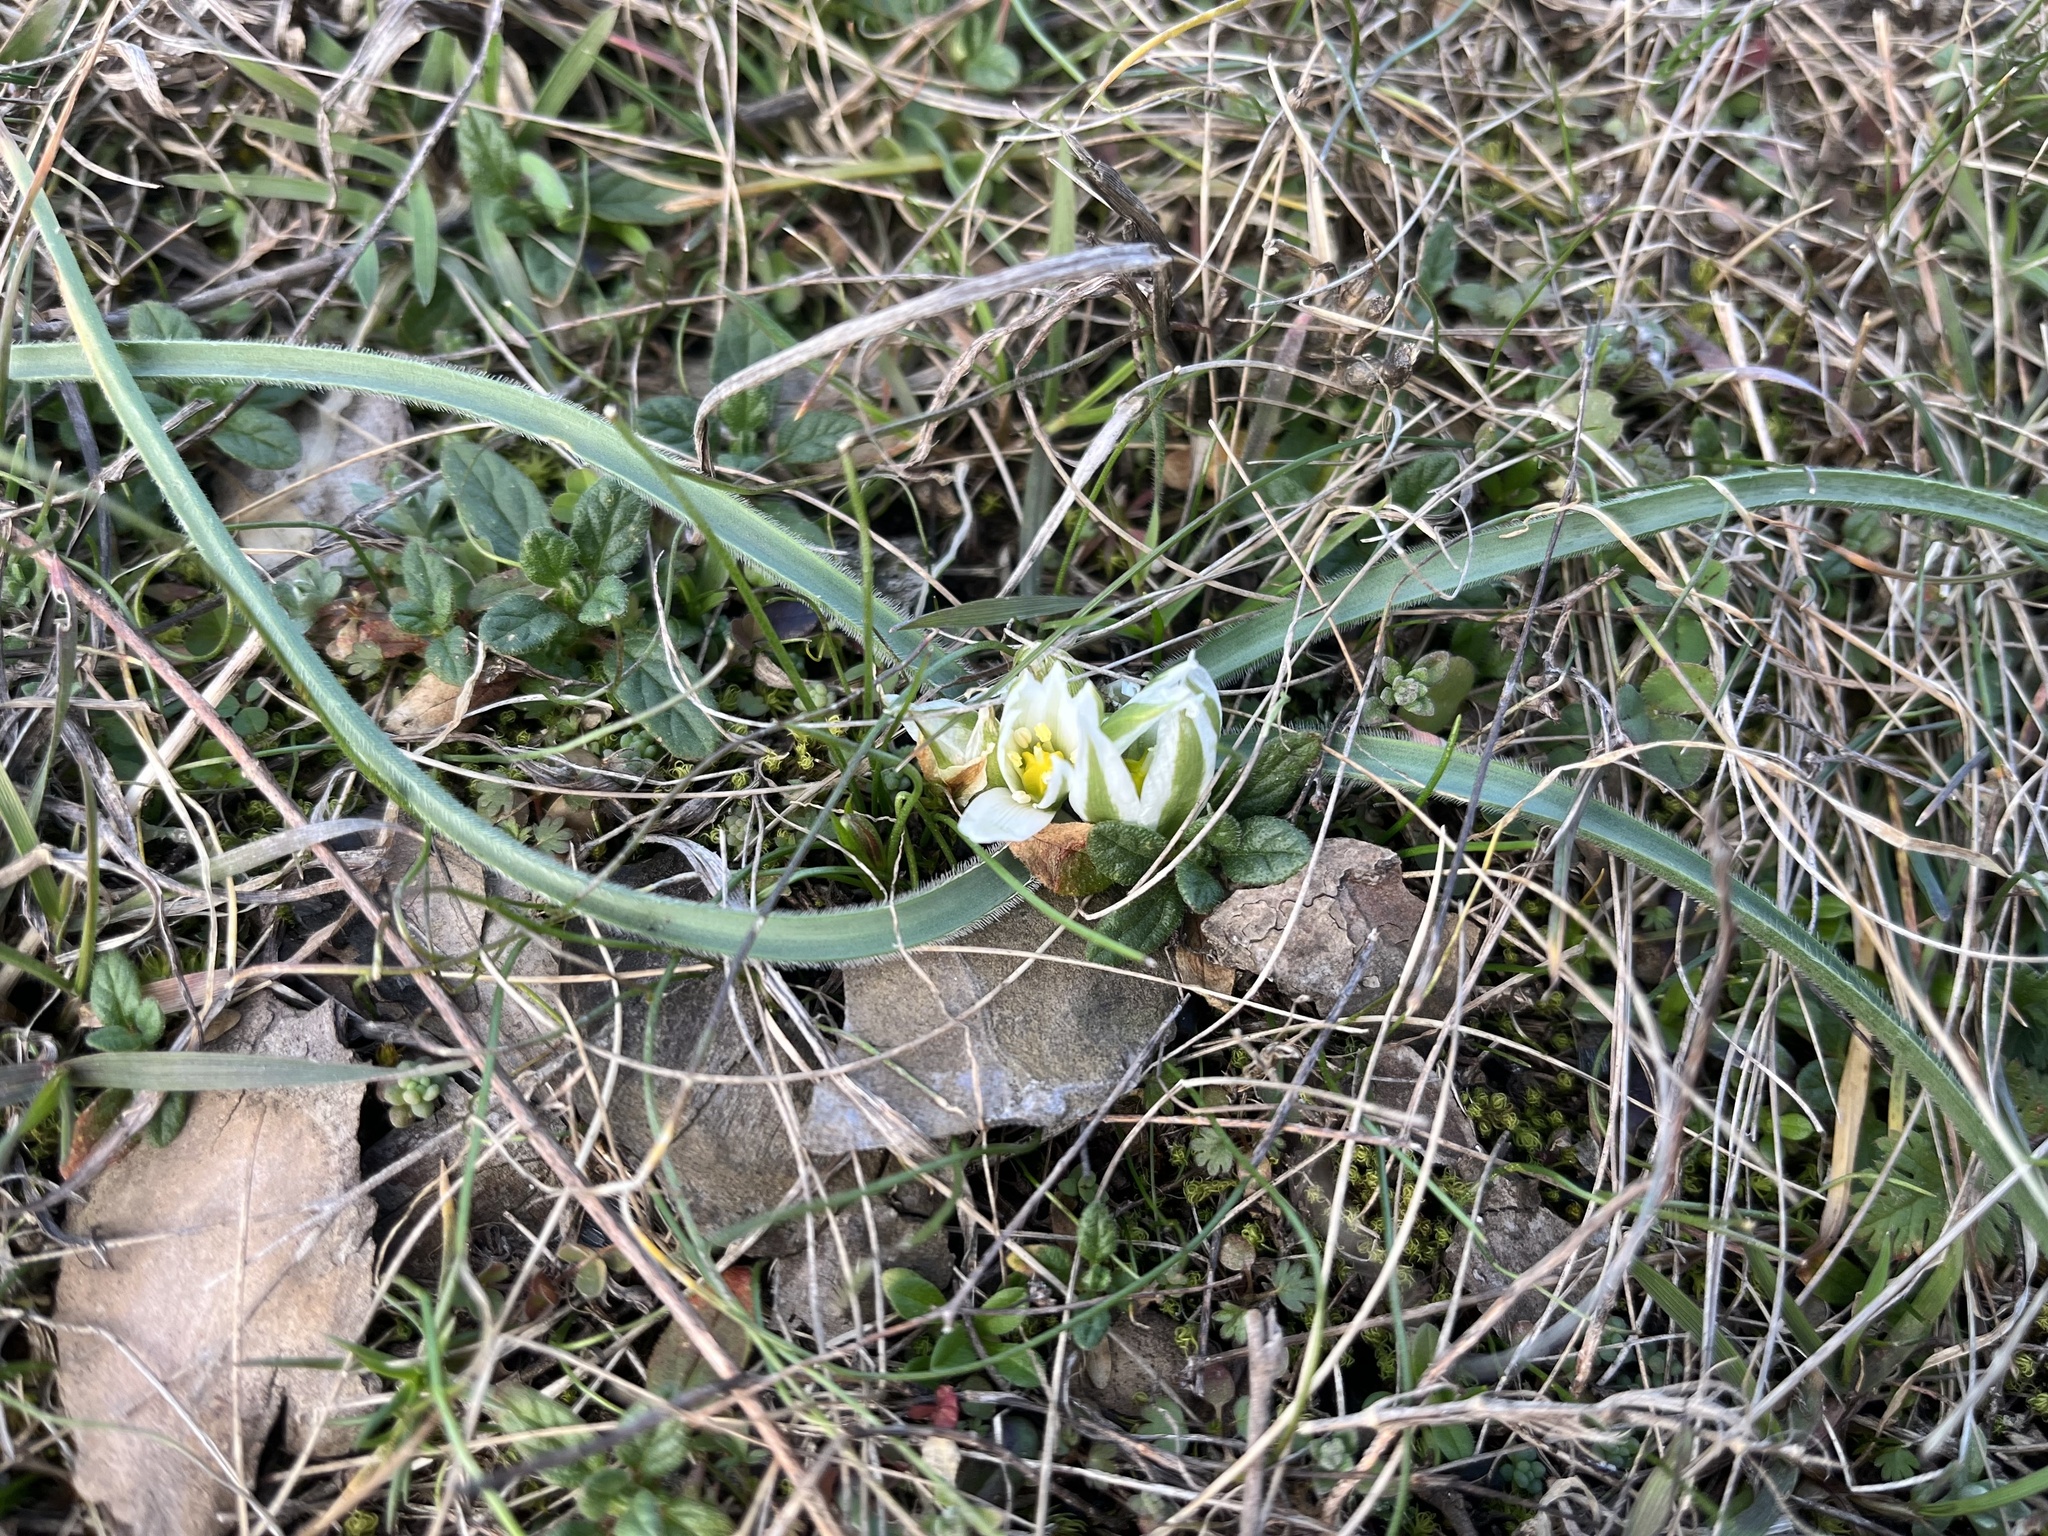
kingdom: Plantae
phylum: Tracheophyta
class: Liliopsida
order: Asparagales
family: Asparagaceae
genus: Ornithogalum
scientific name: Ornithogalum fimbriatum
